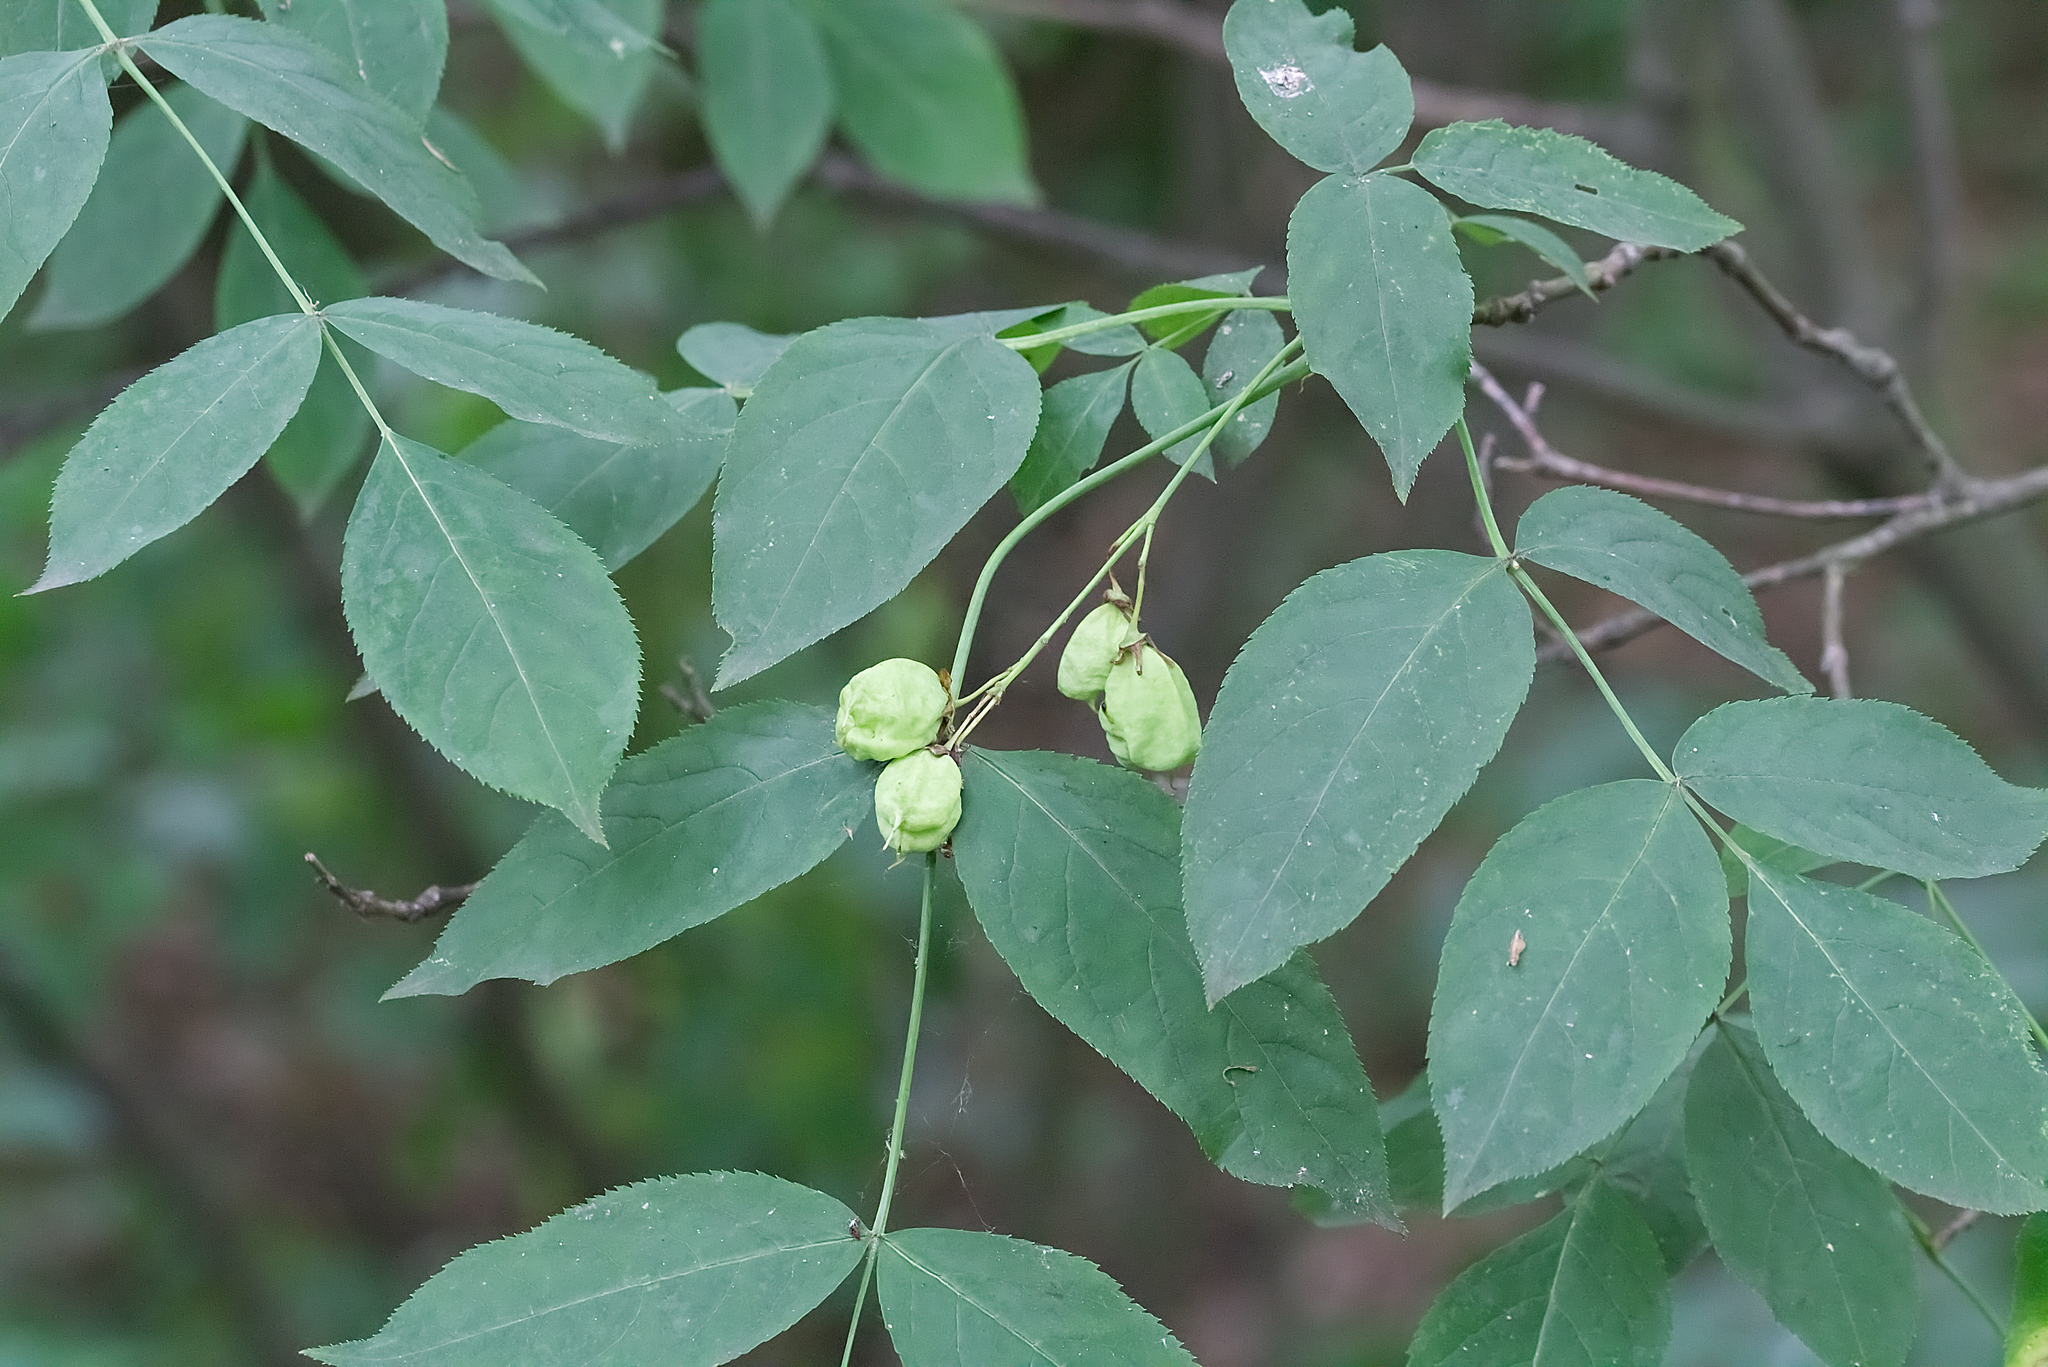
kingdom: Plantae
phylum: Tracheophyta
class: Magnoliopsida
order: Crossosomatales
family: Staphyleaceae
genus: Staphylea
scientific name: Staphylea pinnata
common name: Bladdernut
